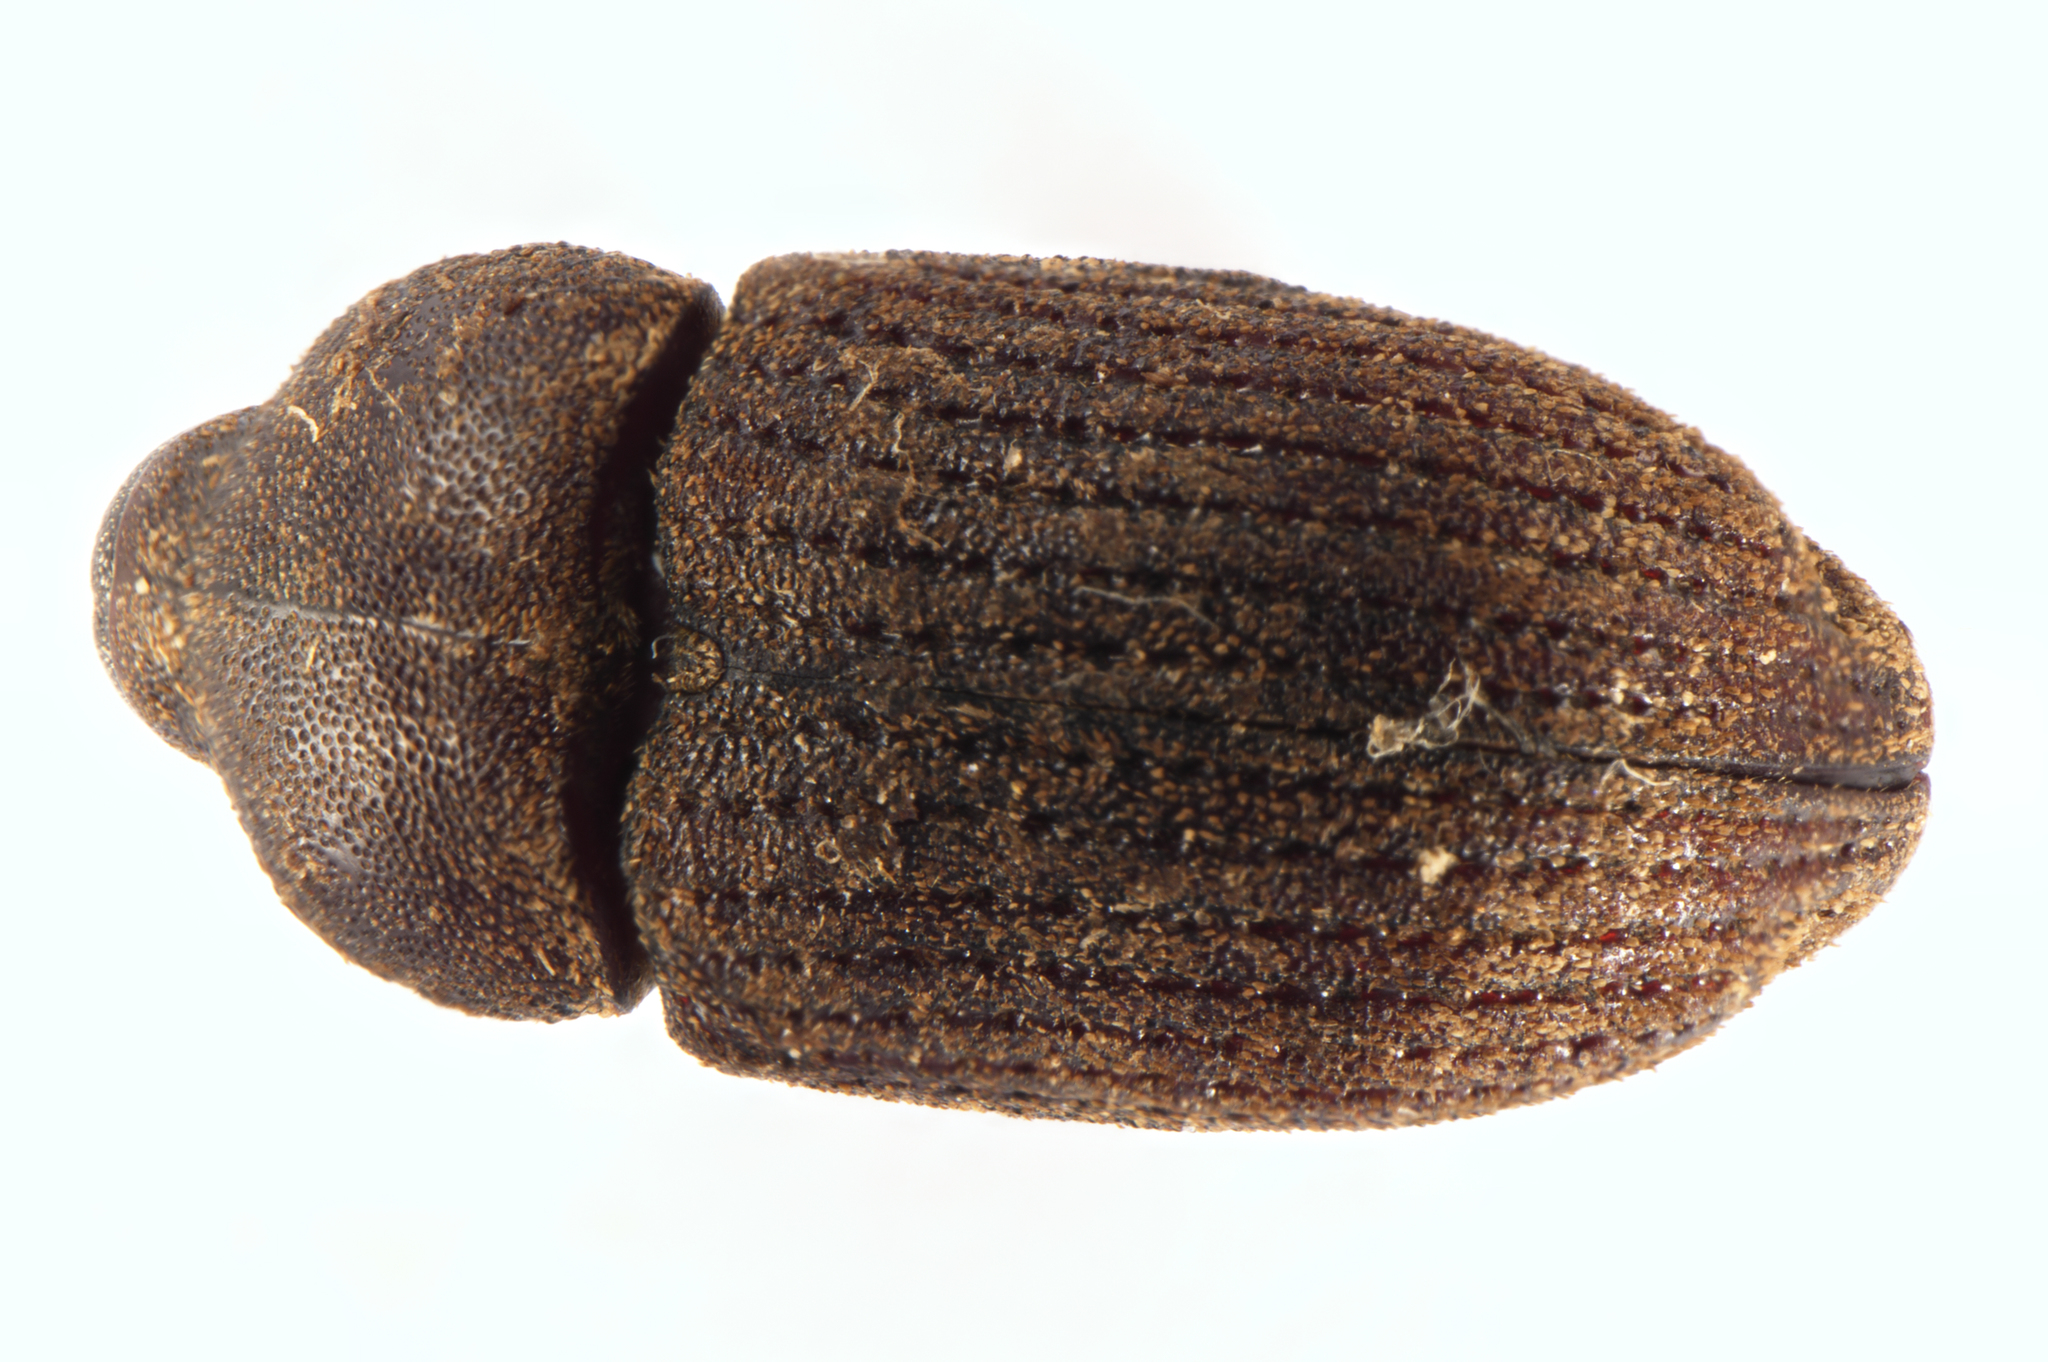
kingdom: Animalia
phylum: Arthropoda
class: Insecta
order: Coleoptera
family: Curculionidae
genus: Homoreda
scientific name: Homoreda
